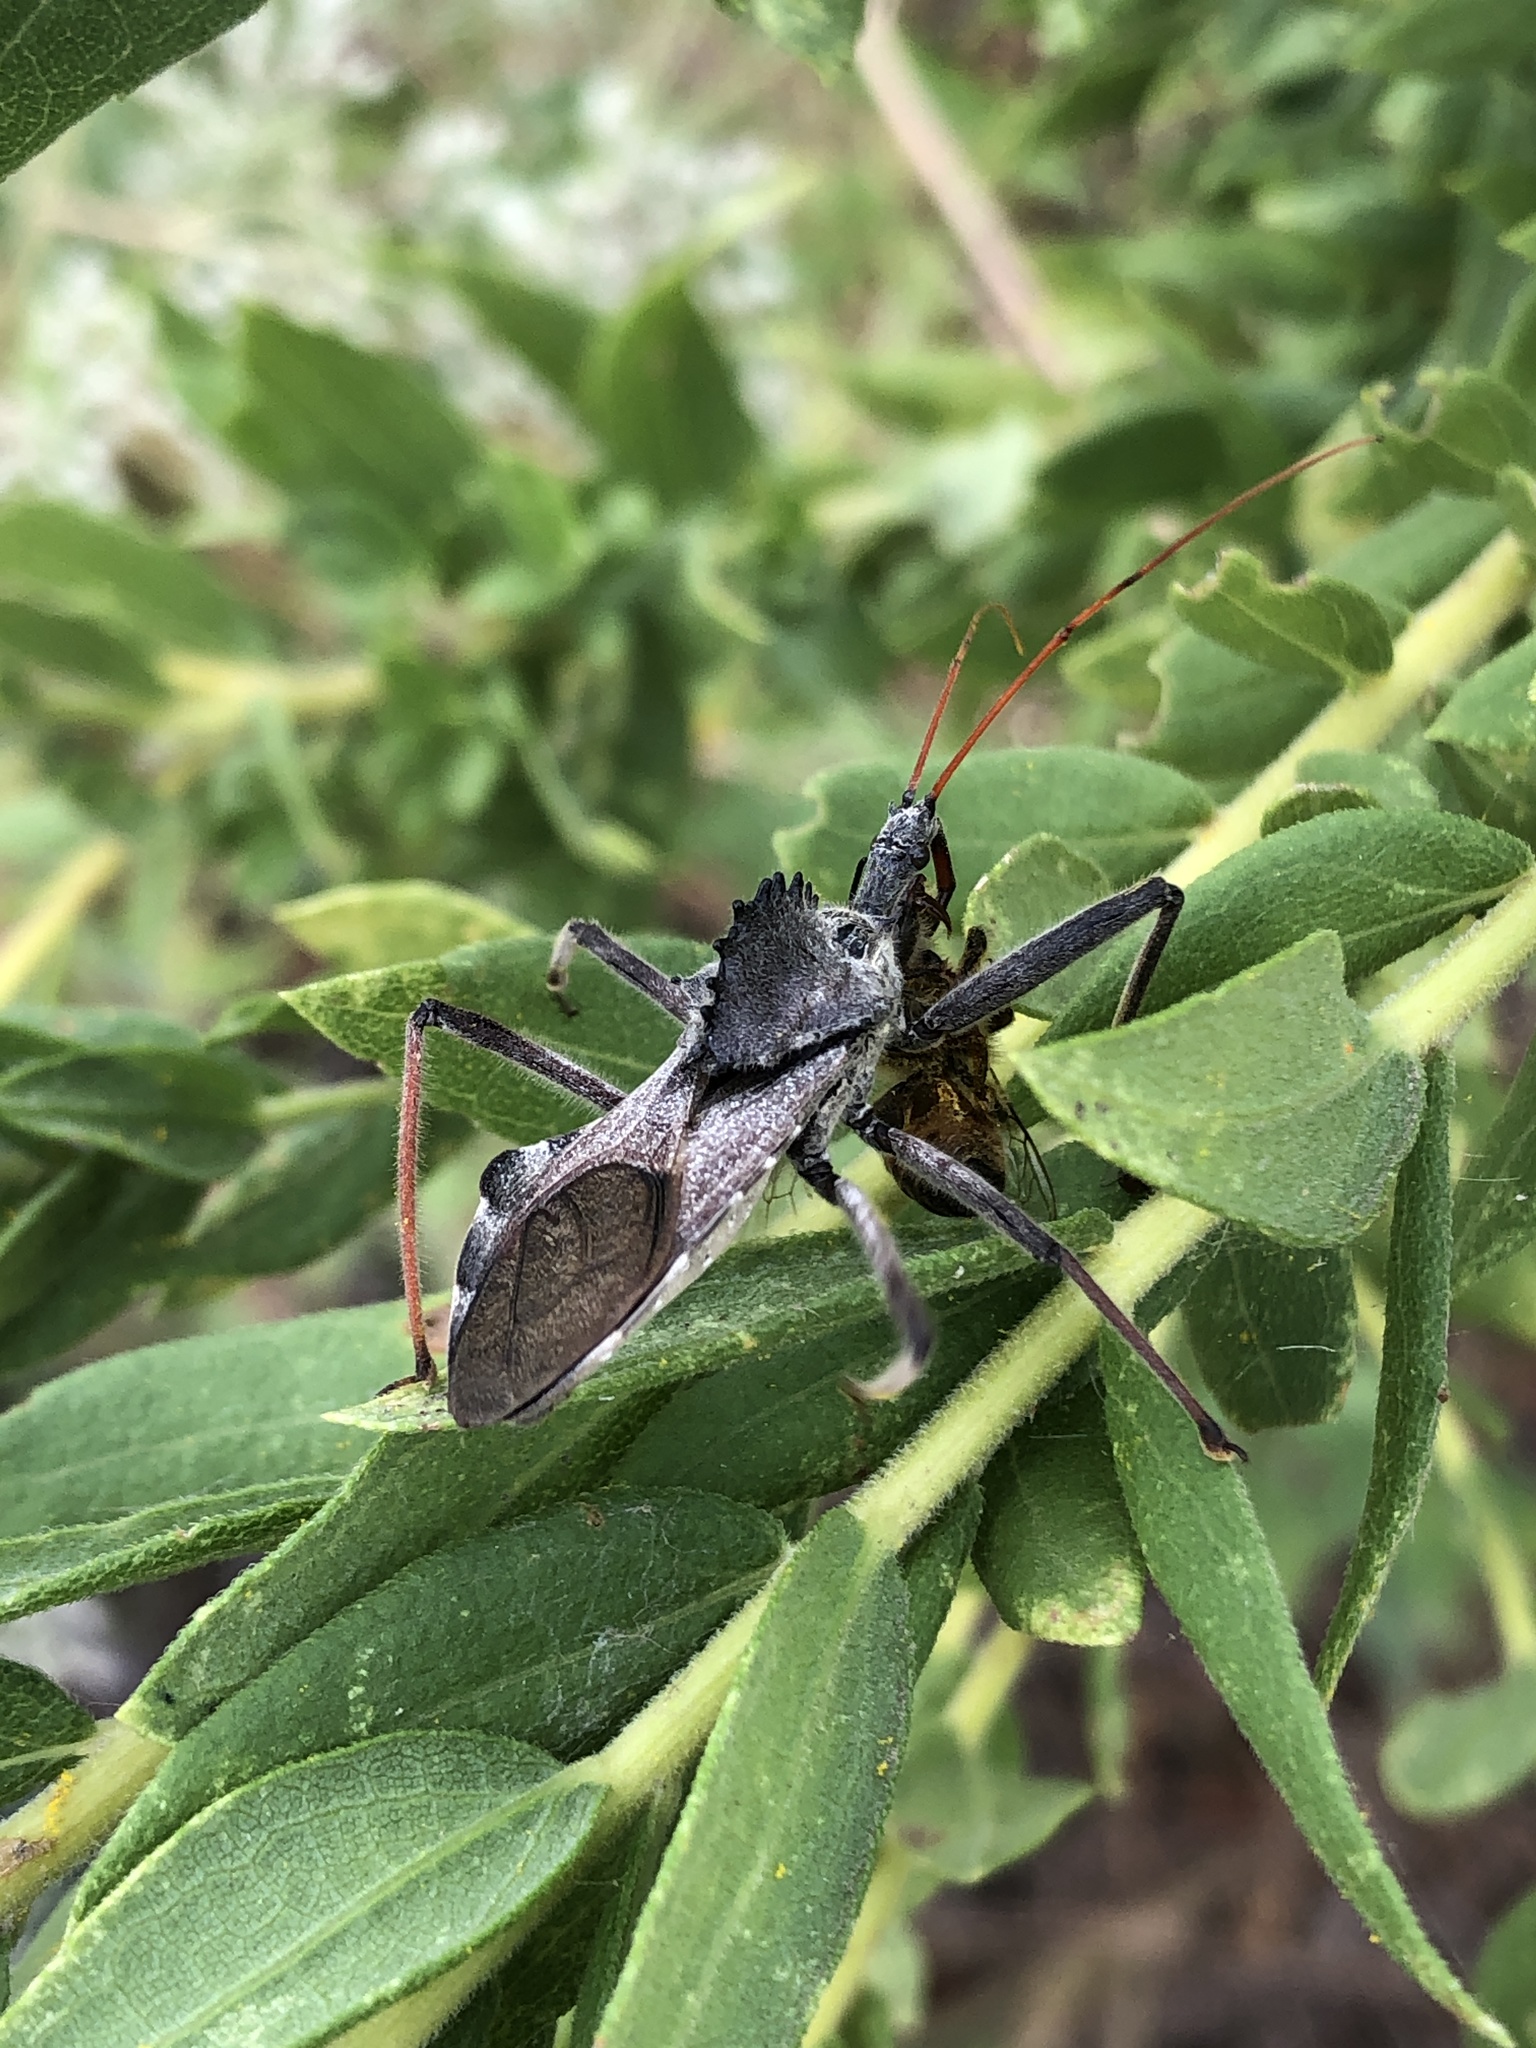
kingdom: Animalia
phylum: Arthropoda
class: Insecta
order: Hemiptera
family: Reduviidae
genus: Arilus
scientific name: Arilus cristatus
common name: North american wheel bug
